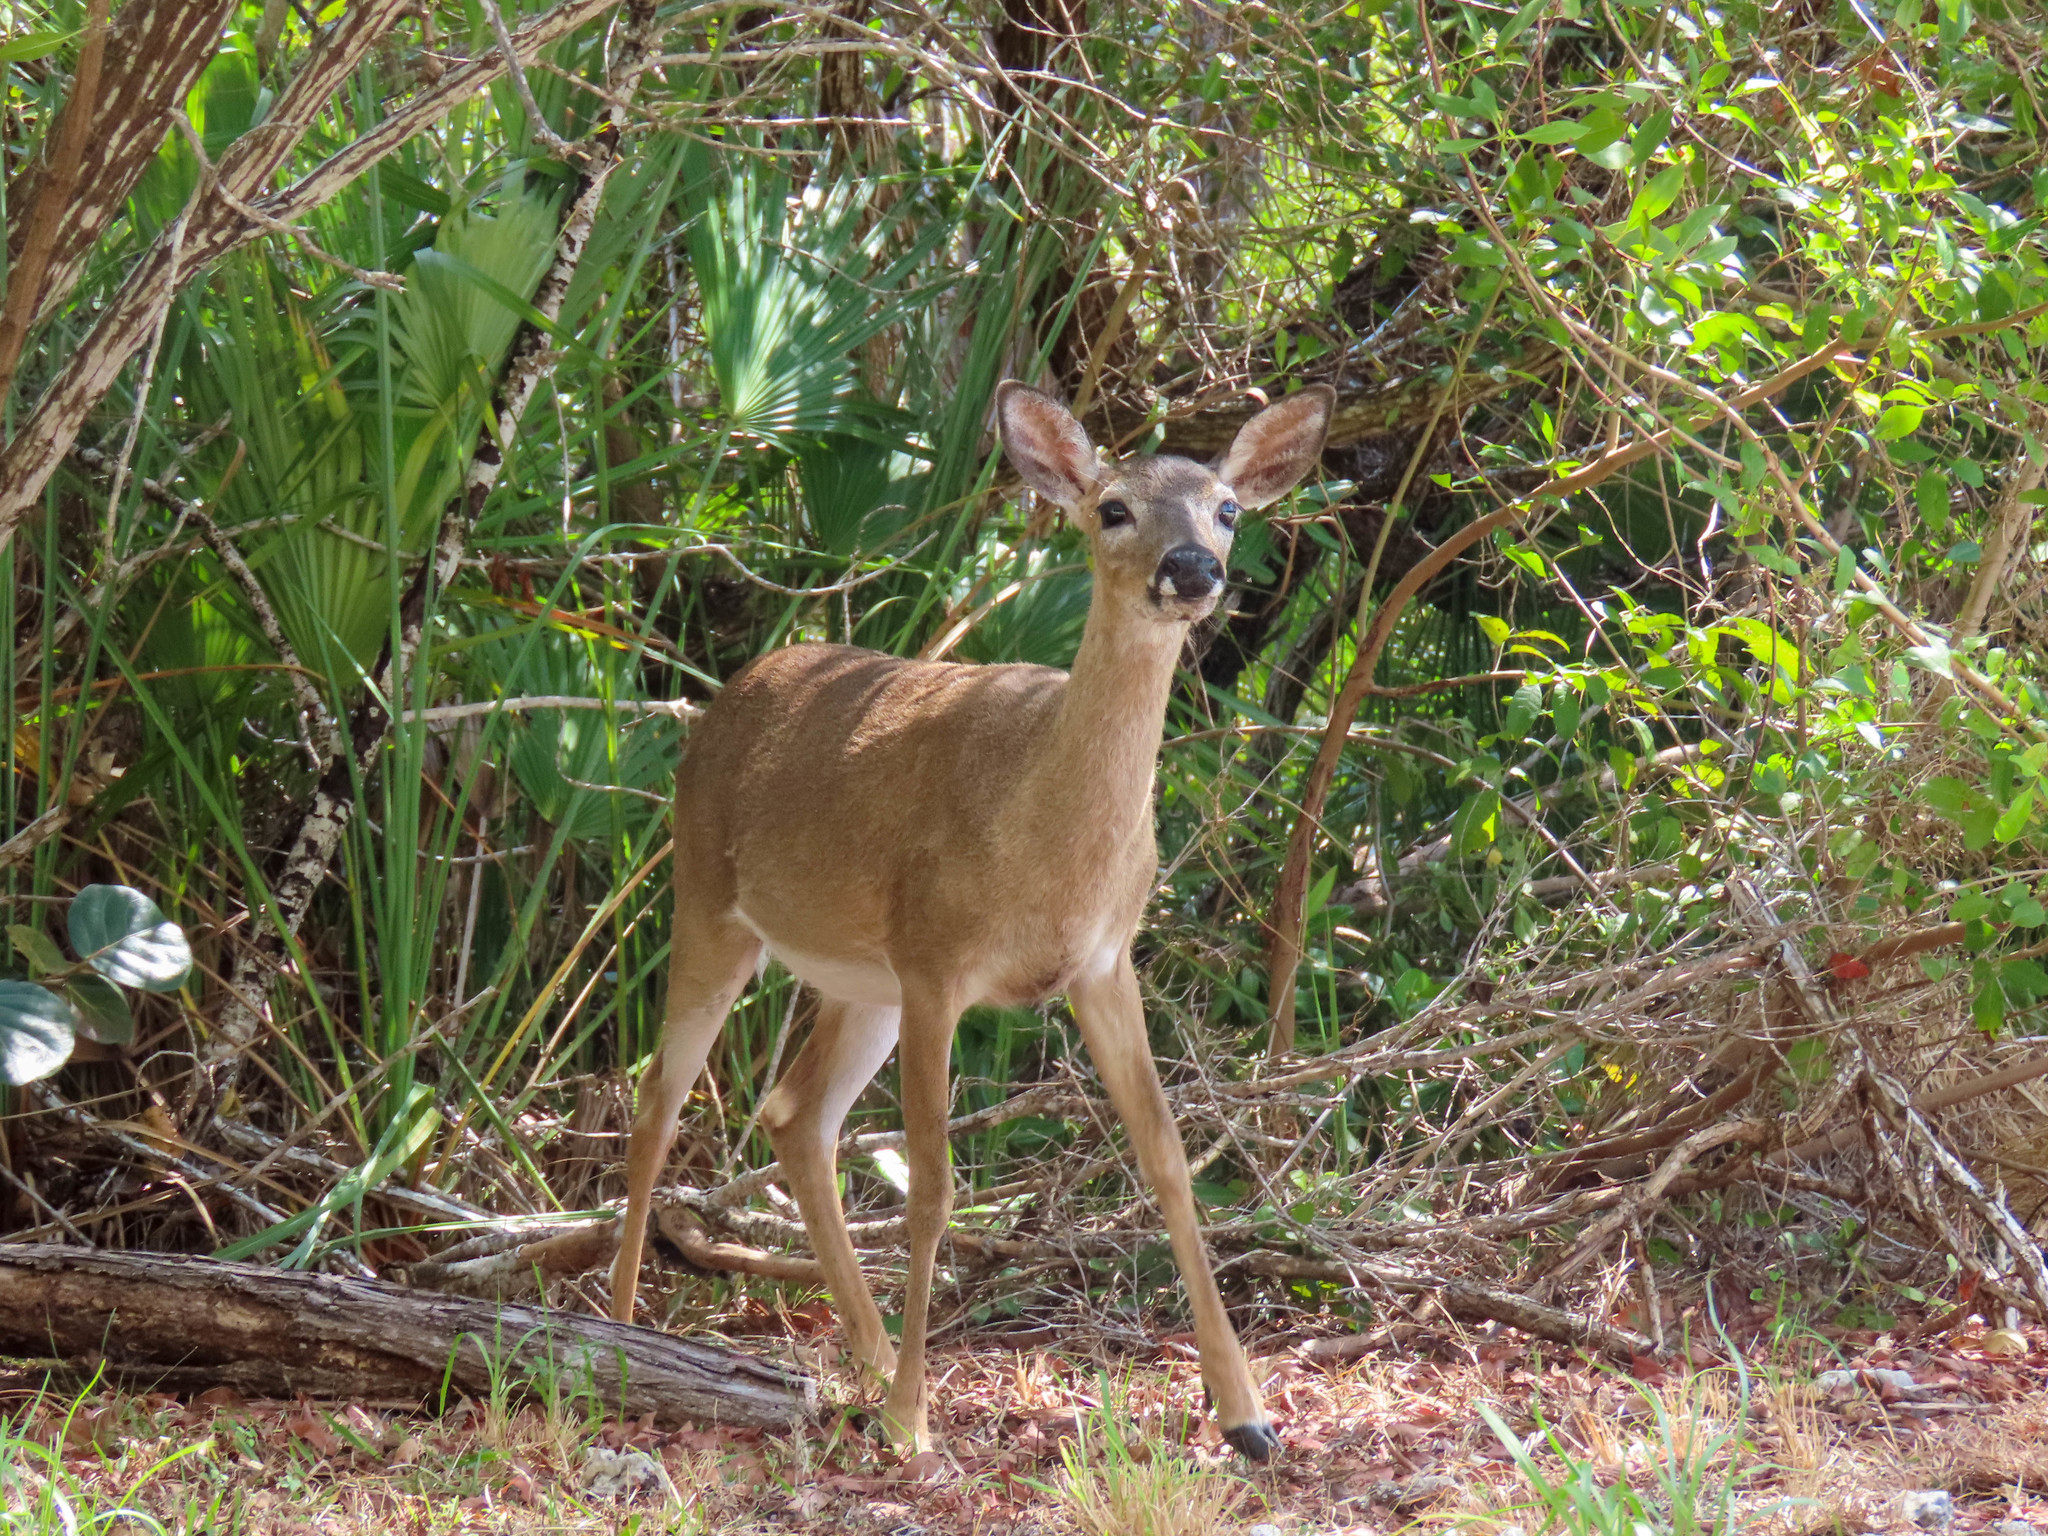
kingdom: Animalia
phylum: Chordata
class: Mammalia
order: Artiodactyla
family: Cervidae
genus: Odocoileus
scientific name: Odocoileus virginianus
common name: White-tailed deer
